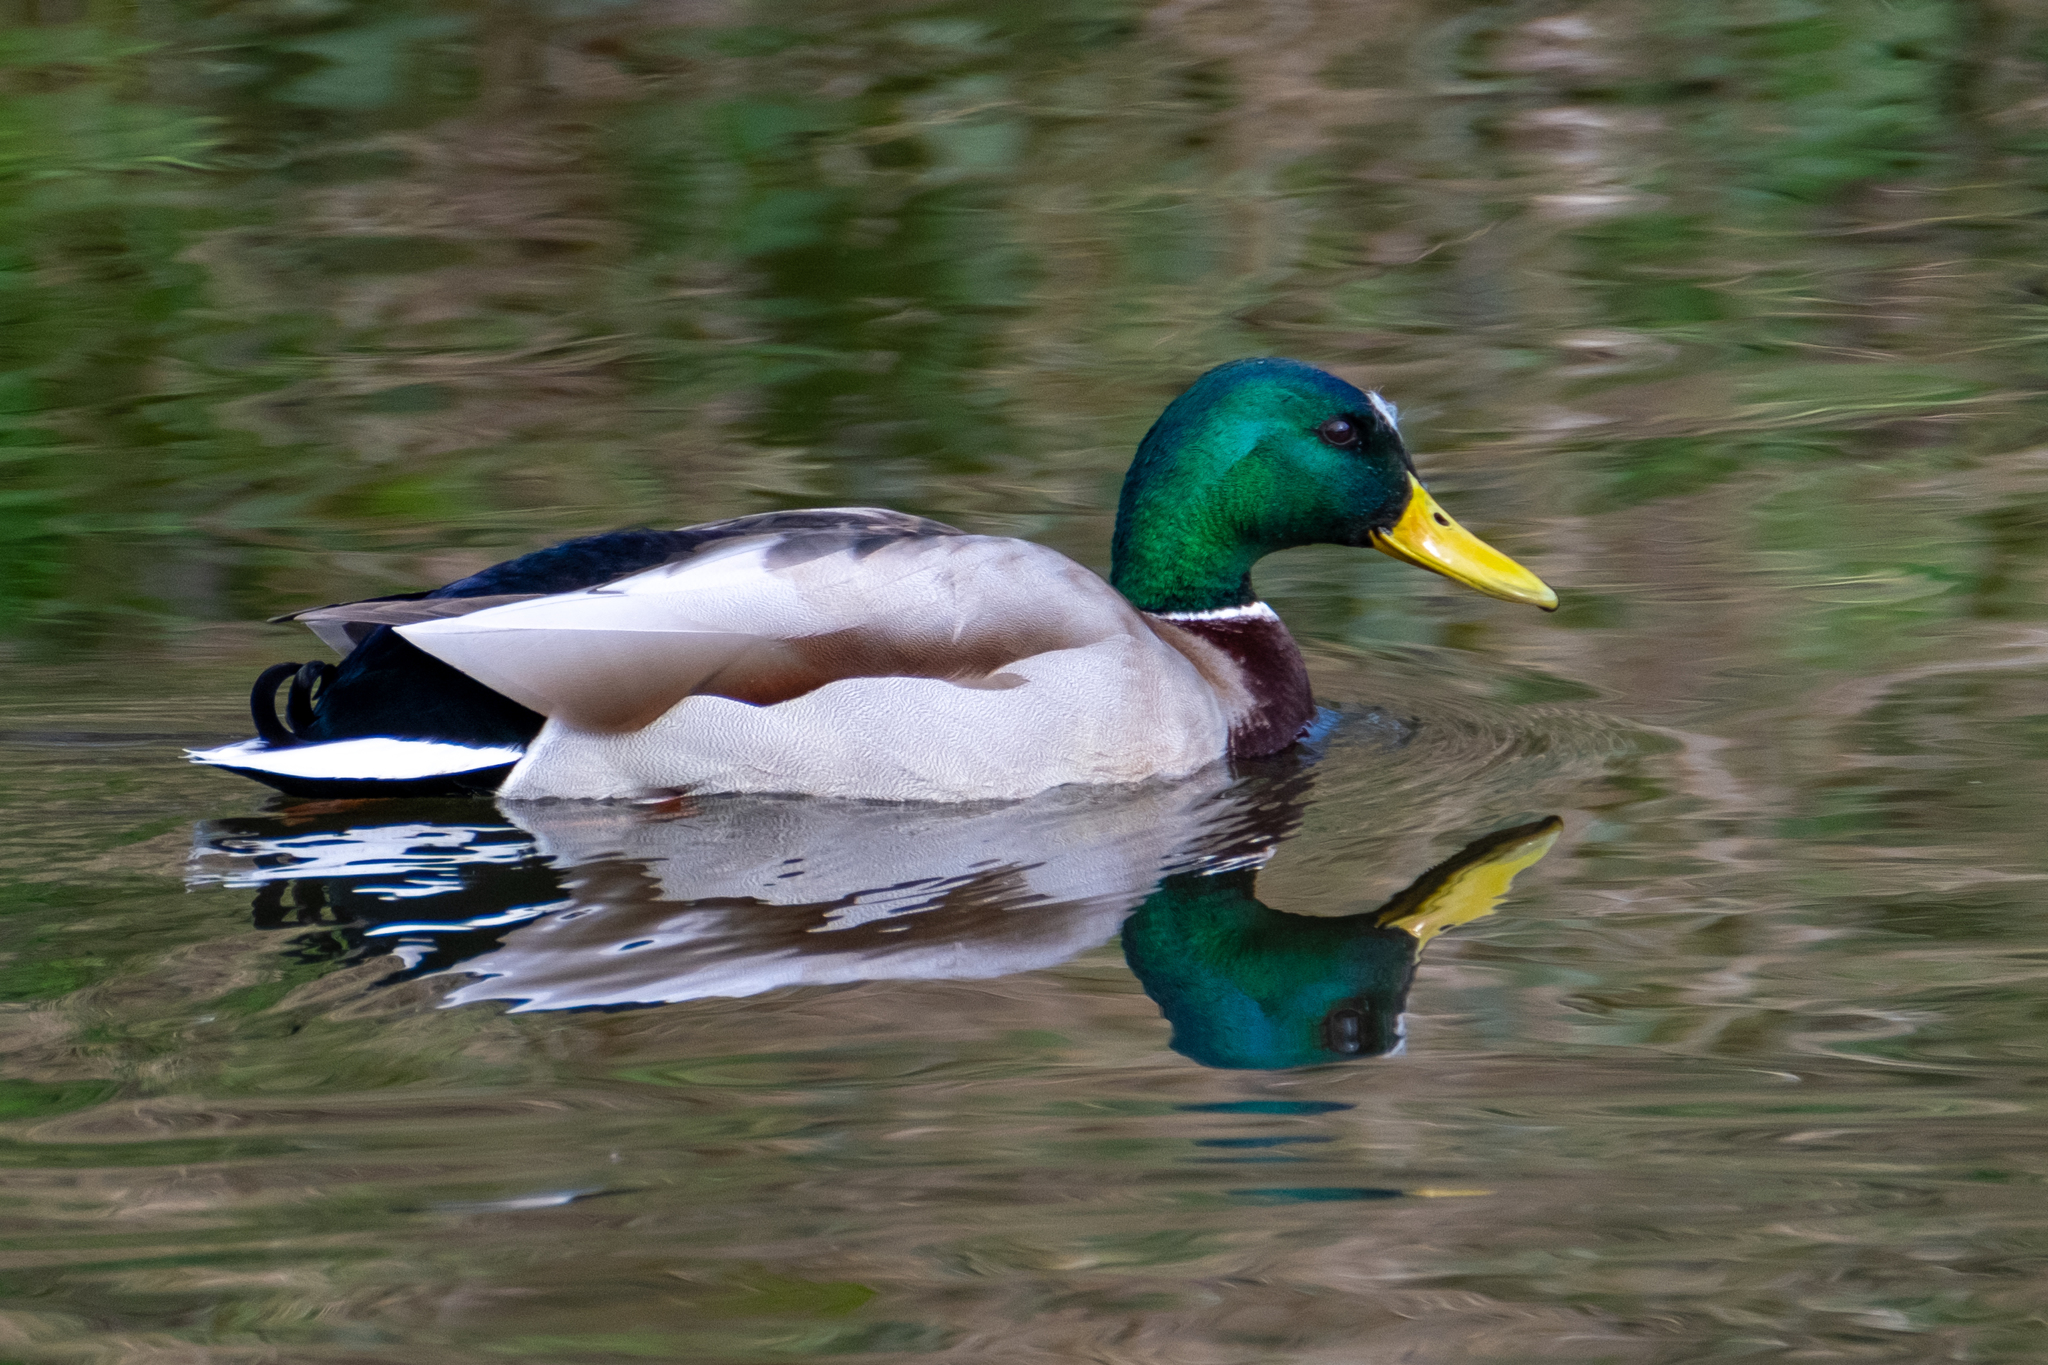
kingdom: Animalia
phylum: Chordata
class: Aves
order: Anseriformes
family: Anatidae
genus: Anas
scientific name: Anas platyrhynchos
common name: Mallard
